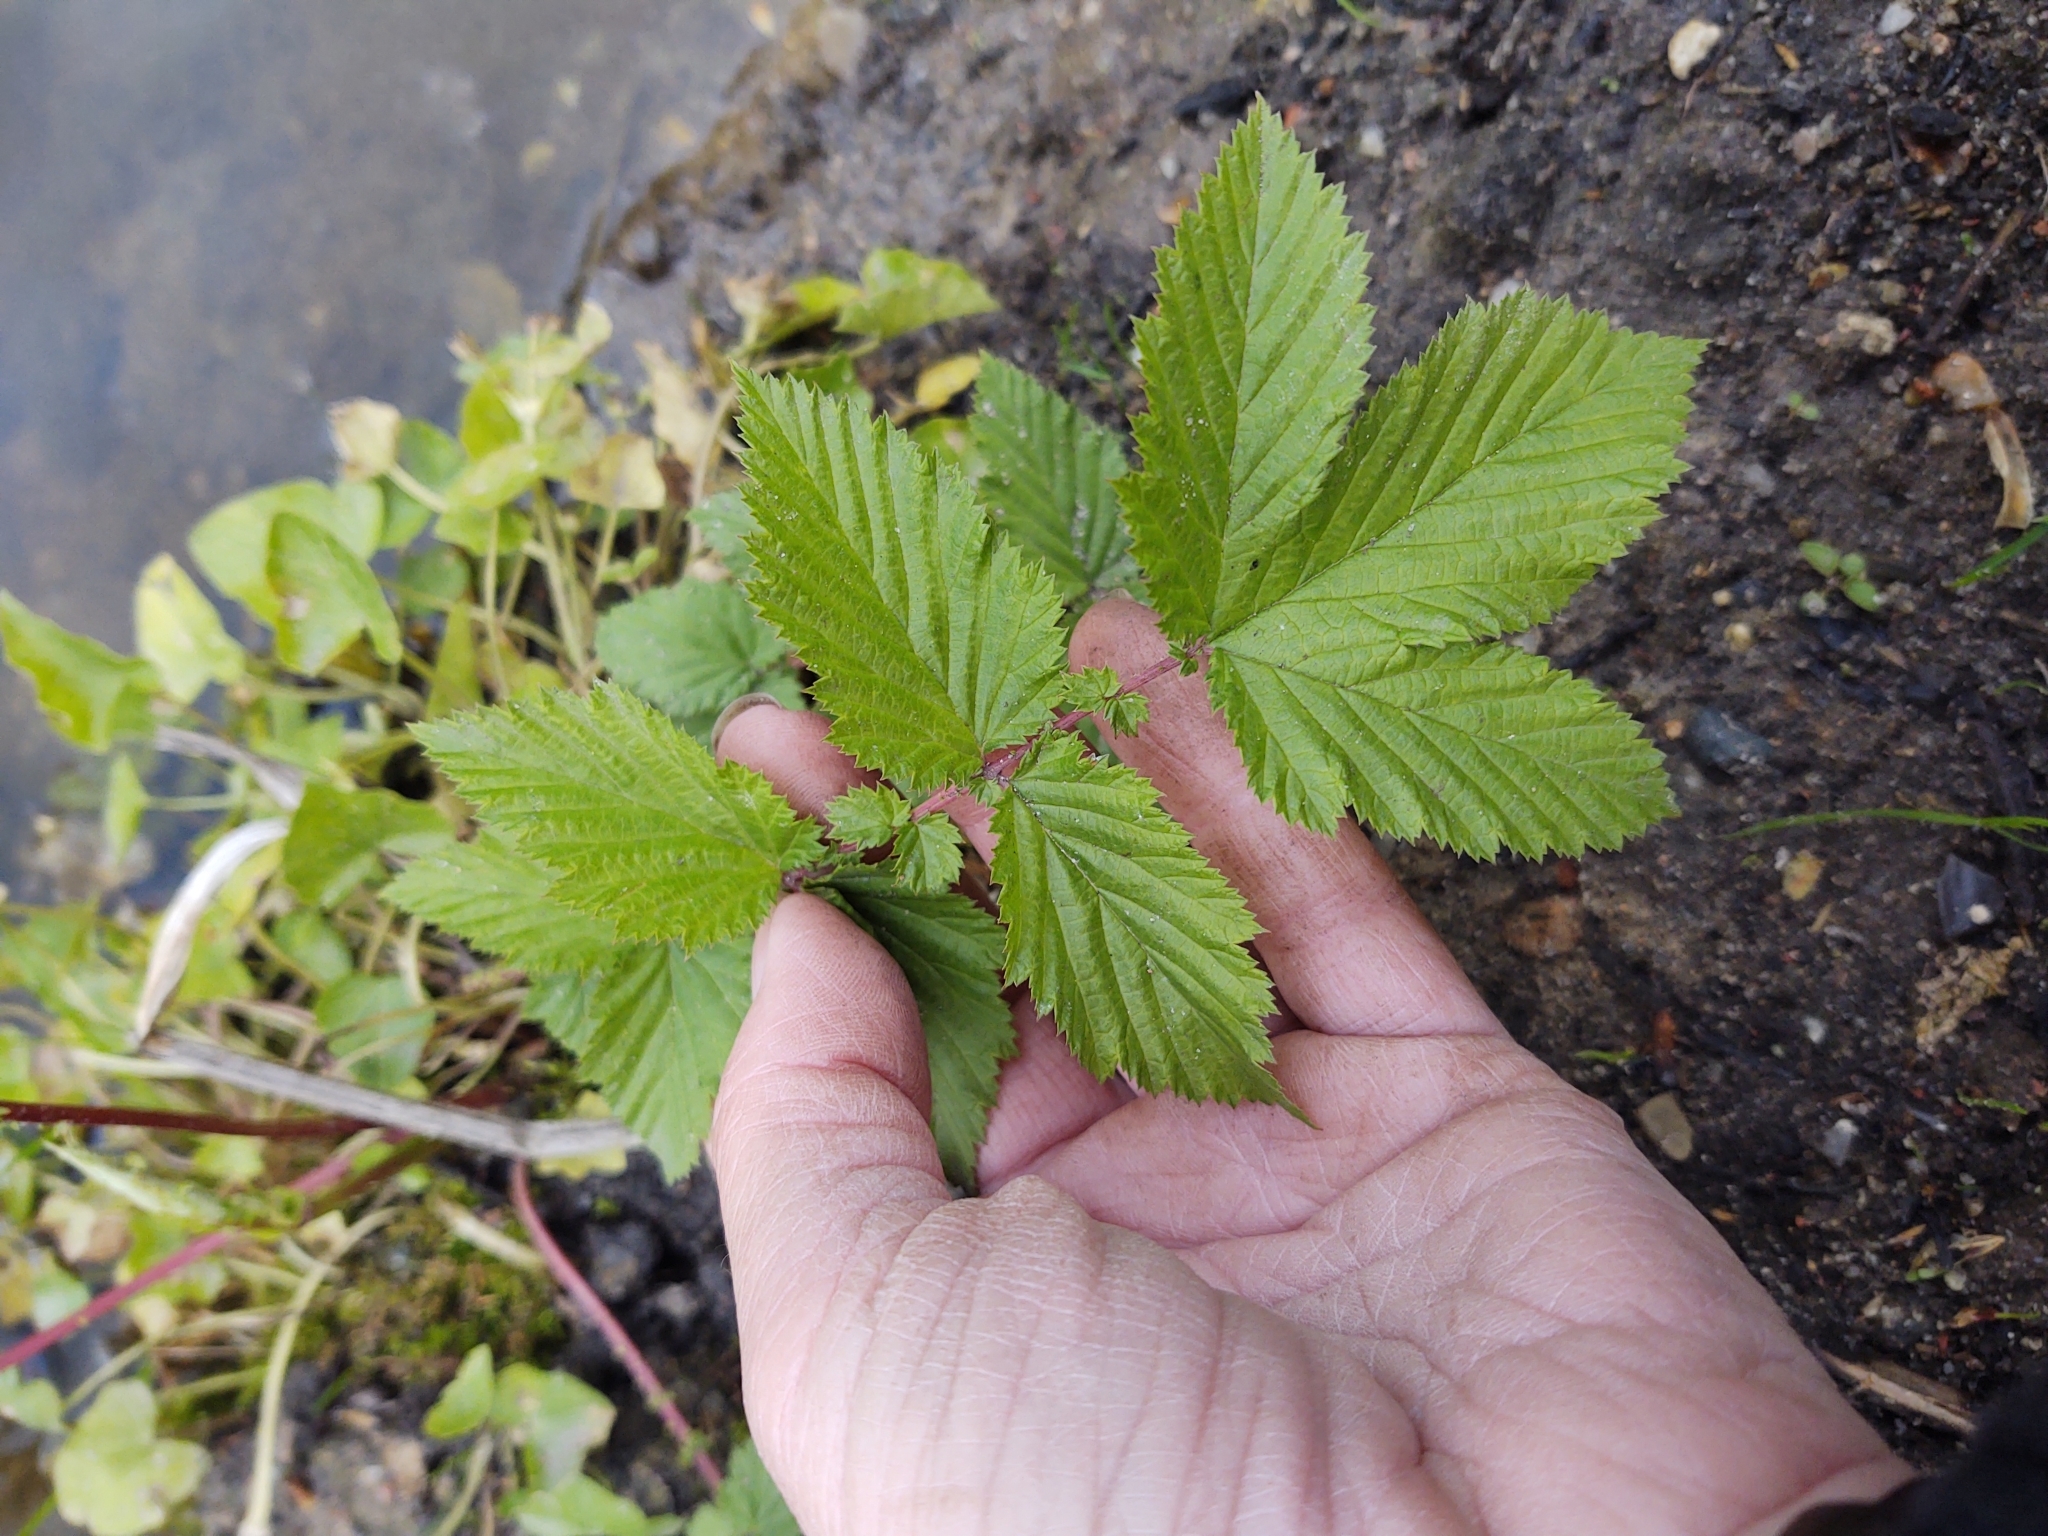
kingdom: Plantae
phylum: Tracheophyta
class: Magnoliopsida
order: Rosales
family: Rosaceae
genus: Filipendula
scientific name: Filipendula ulmaria
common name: Meadowsweet
